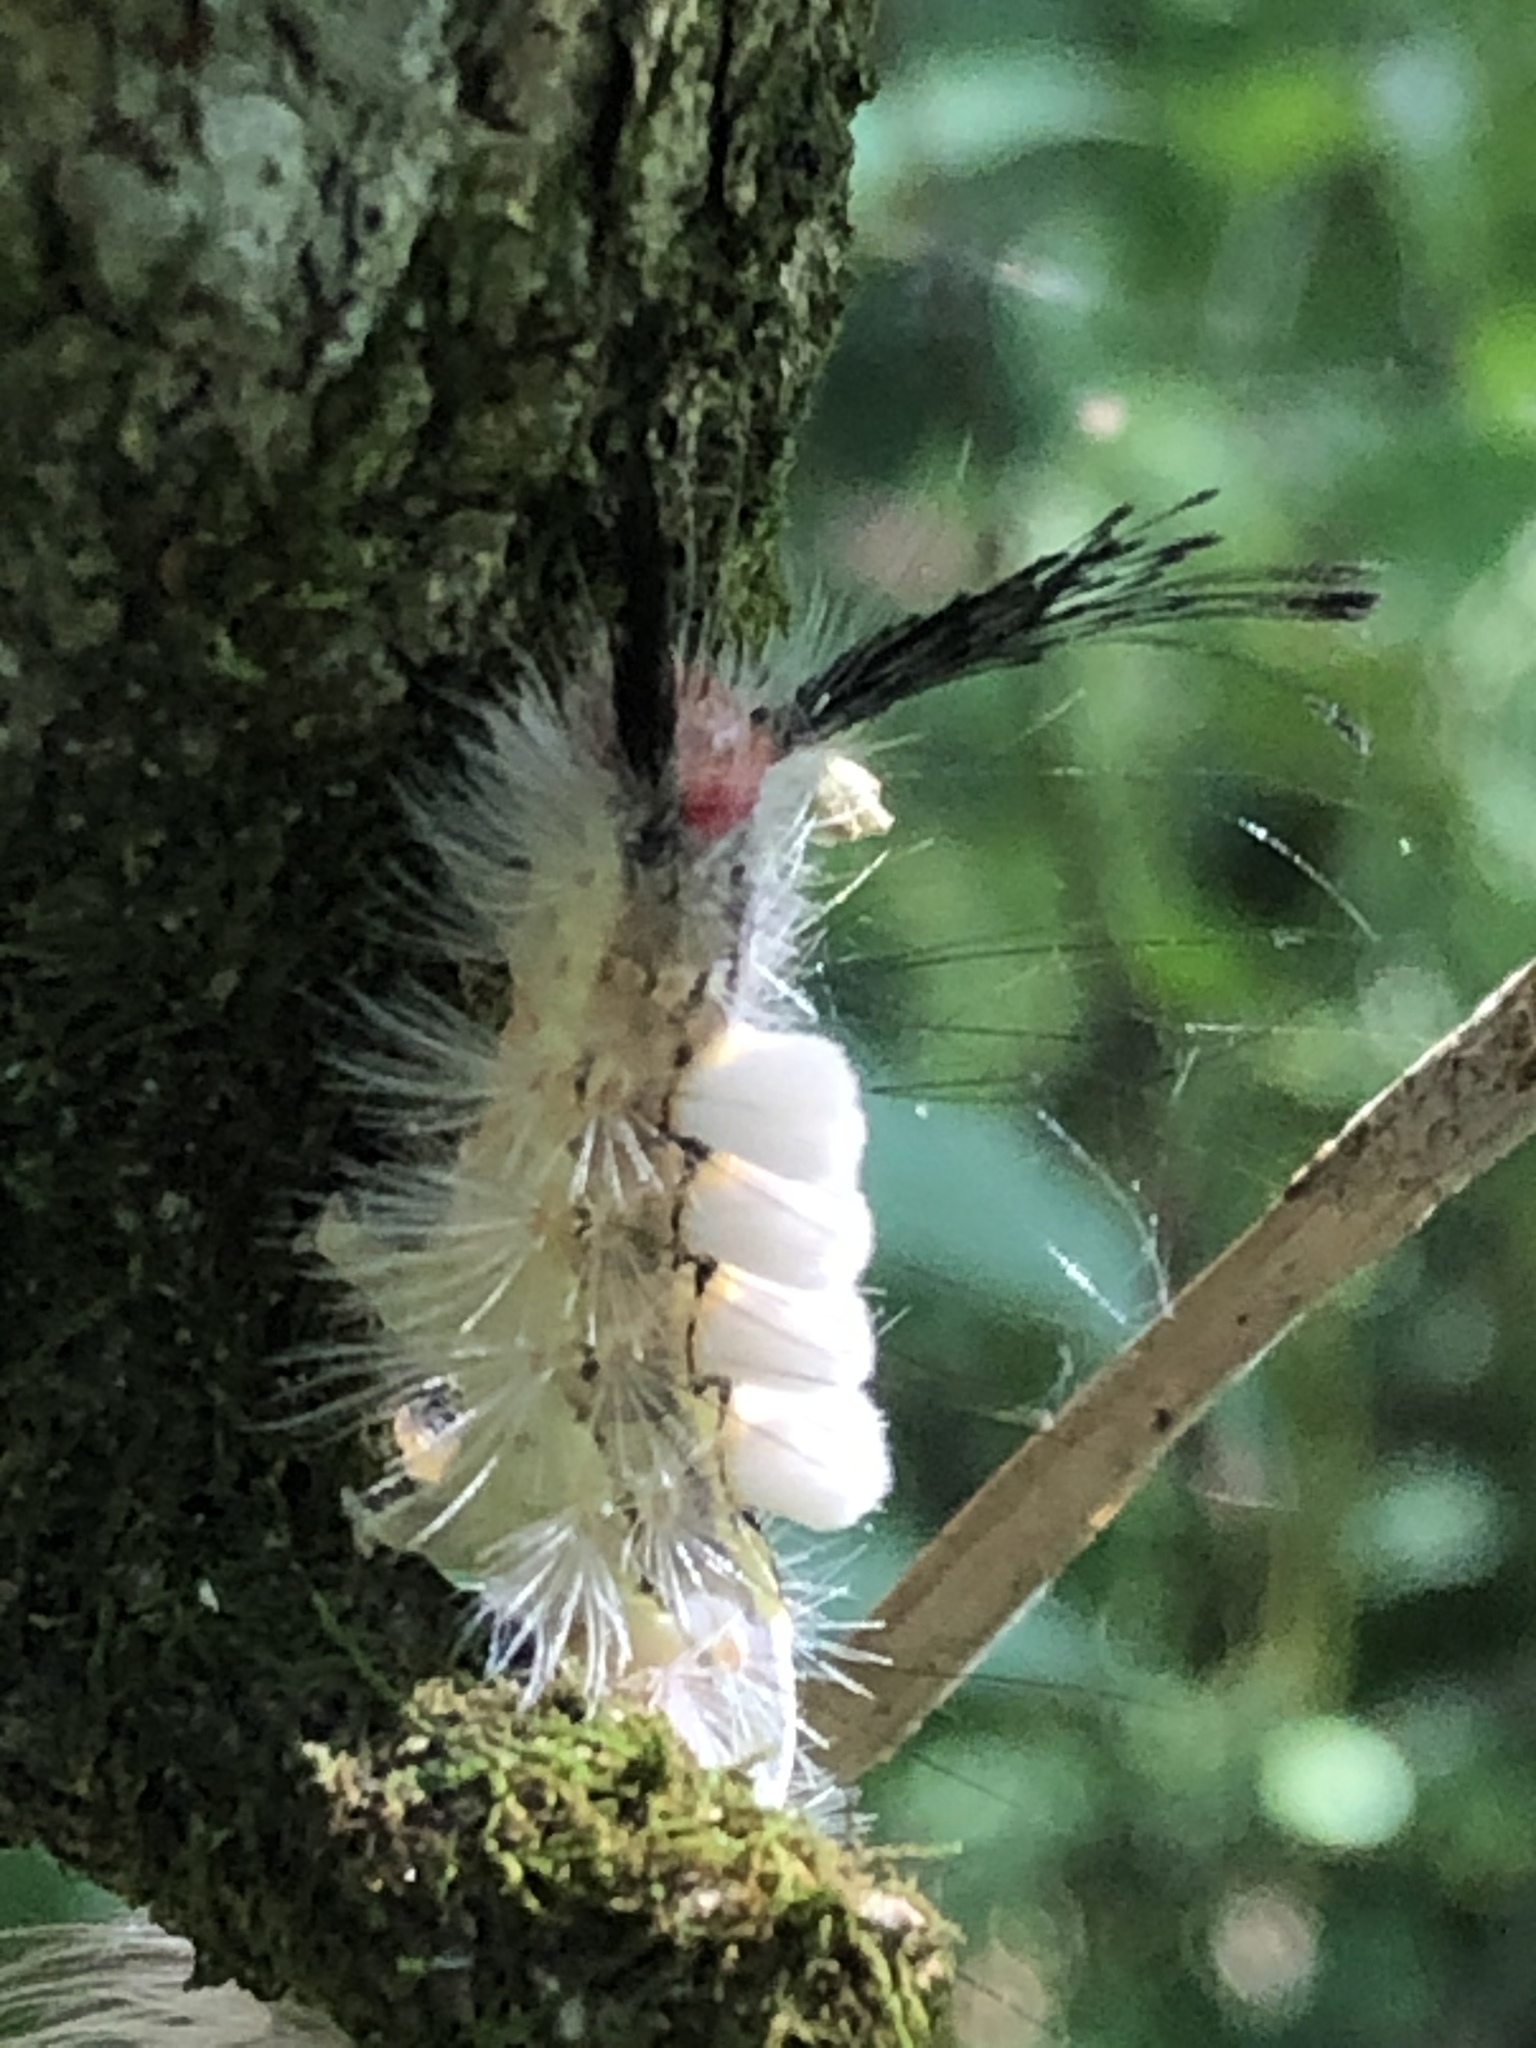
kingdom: Animalia
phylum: Arthropoda
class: Insecta
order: Lepidoptera
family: Erebidae
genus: Orgyia
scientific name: Orgyia leucostigma
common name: White-marked tussock moth
